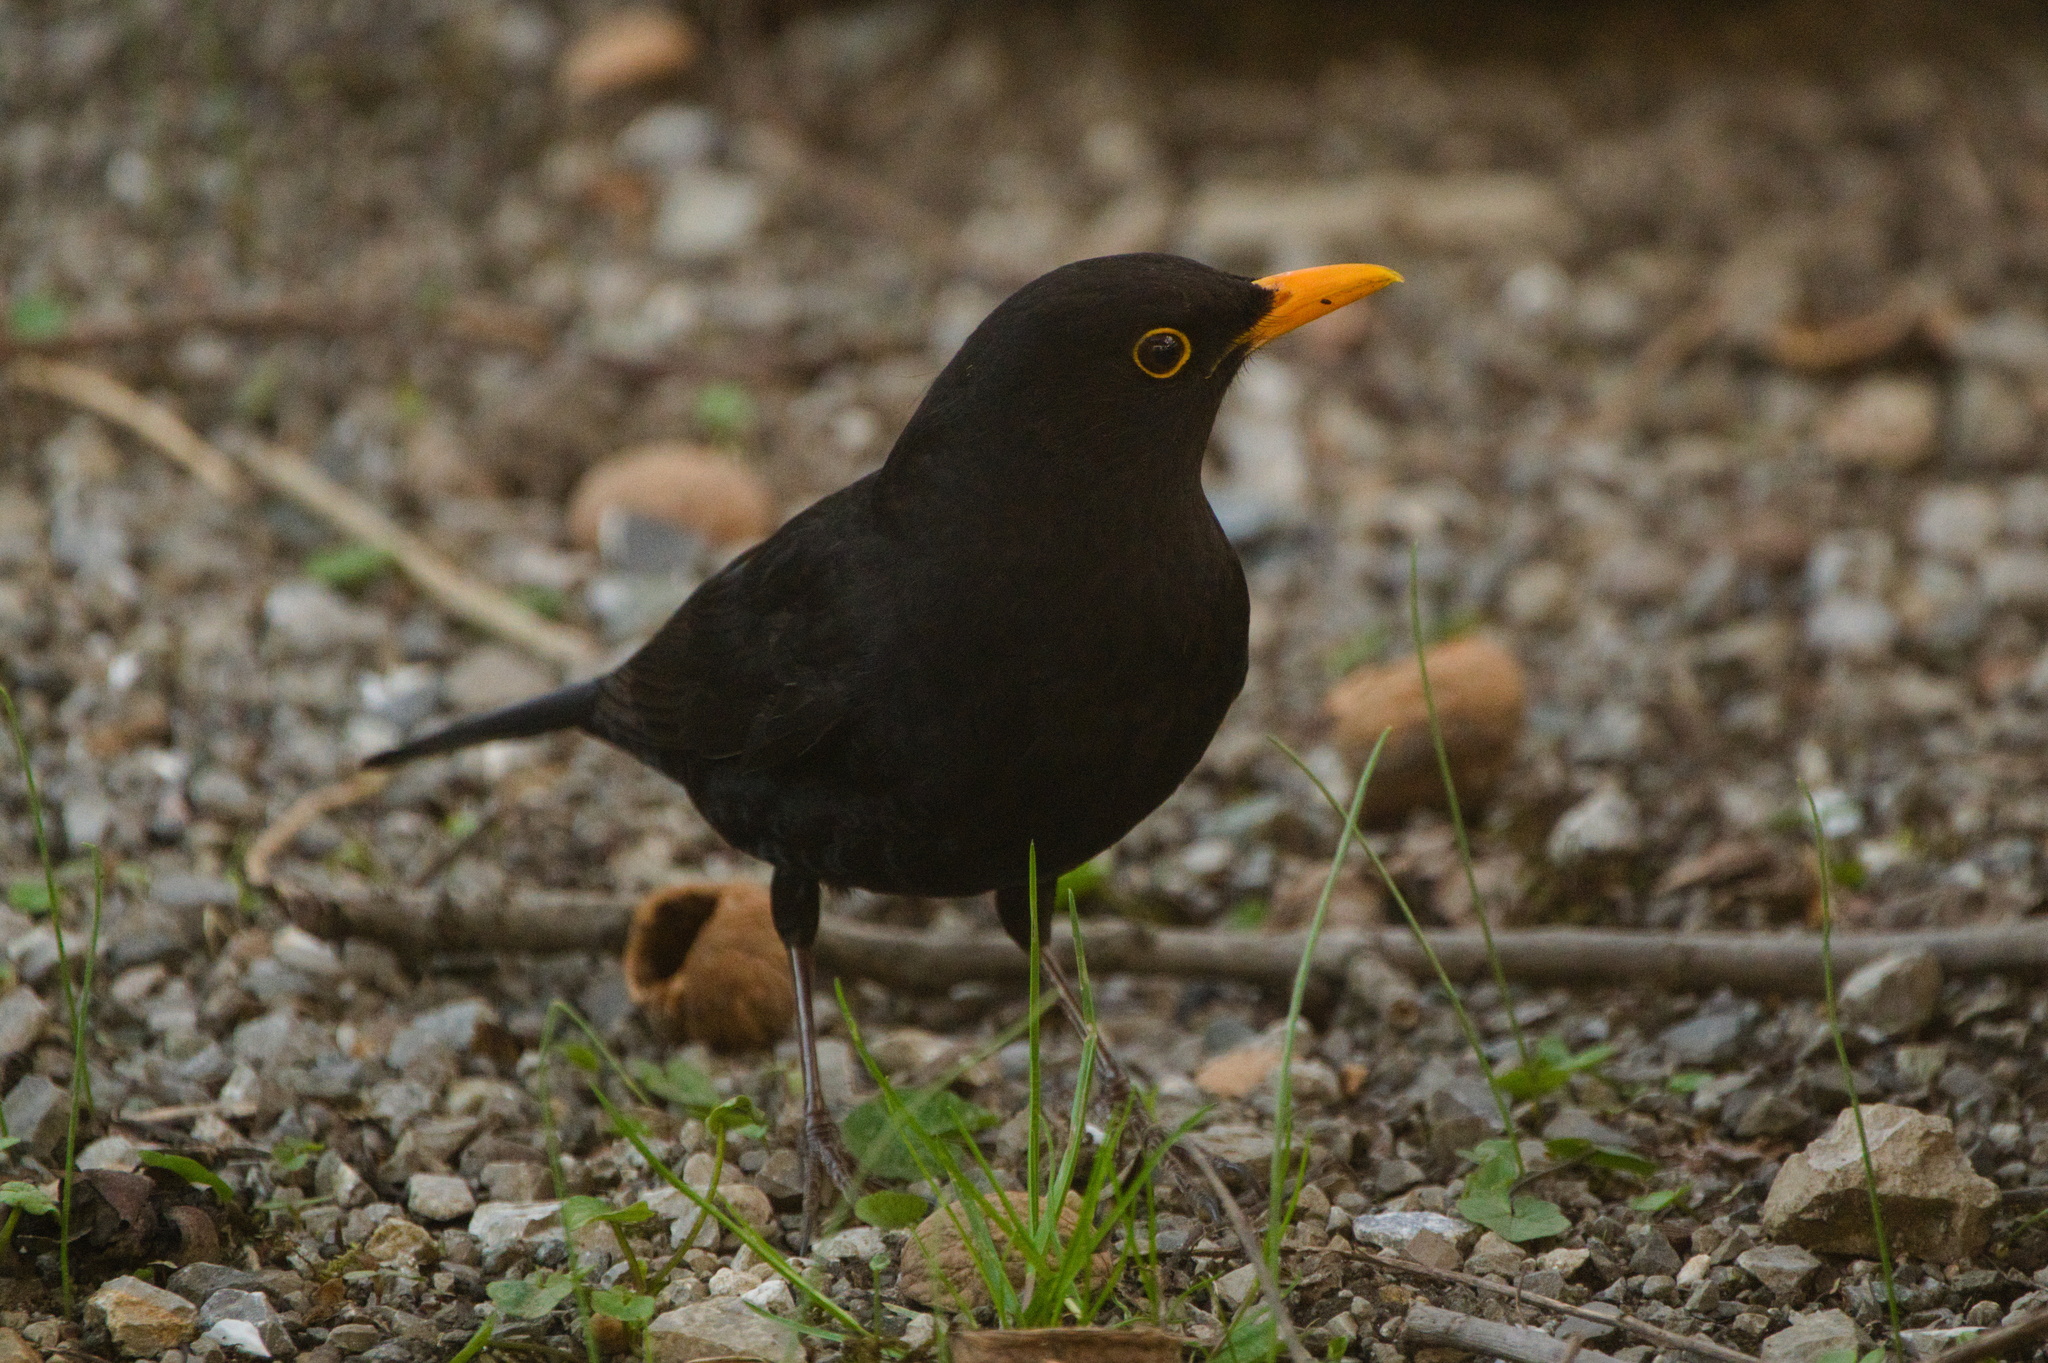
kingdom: Animalia
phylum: Chordata
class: Aves
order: Passeriformes
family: Turdidae
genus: Turdus
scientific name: Turdus merula
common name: Common blackbird
